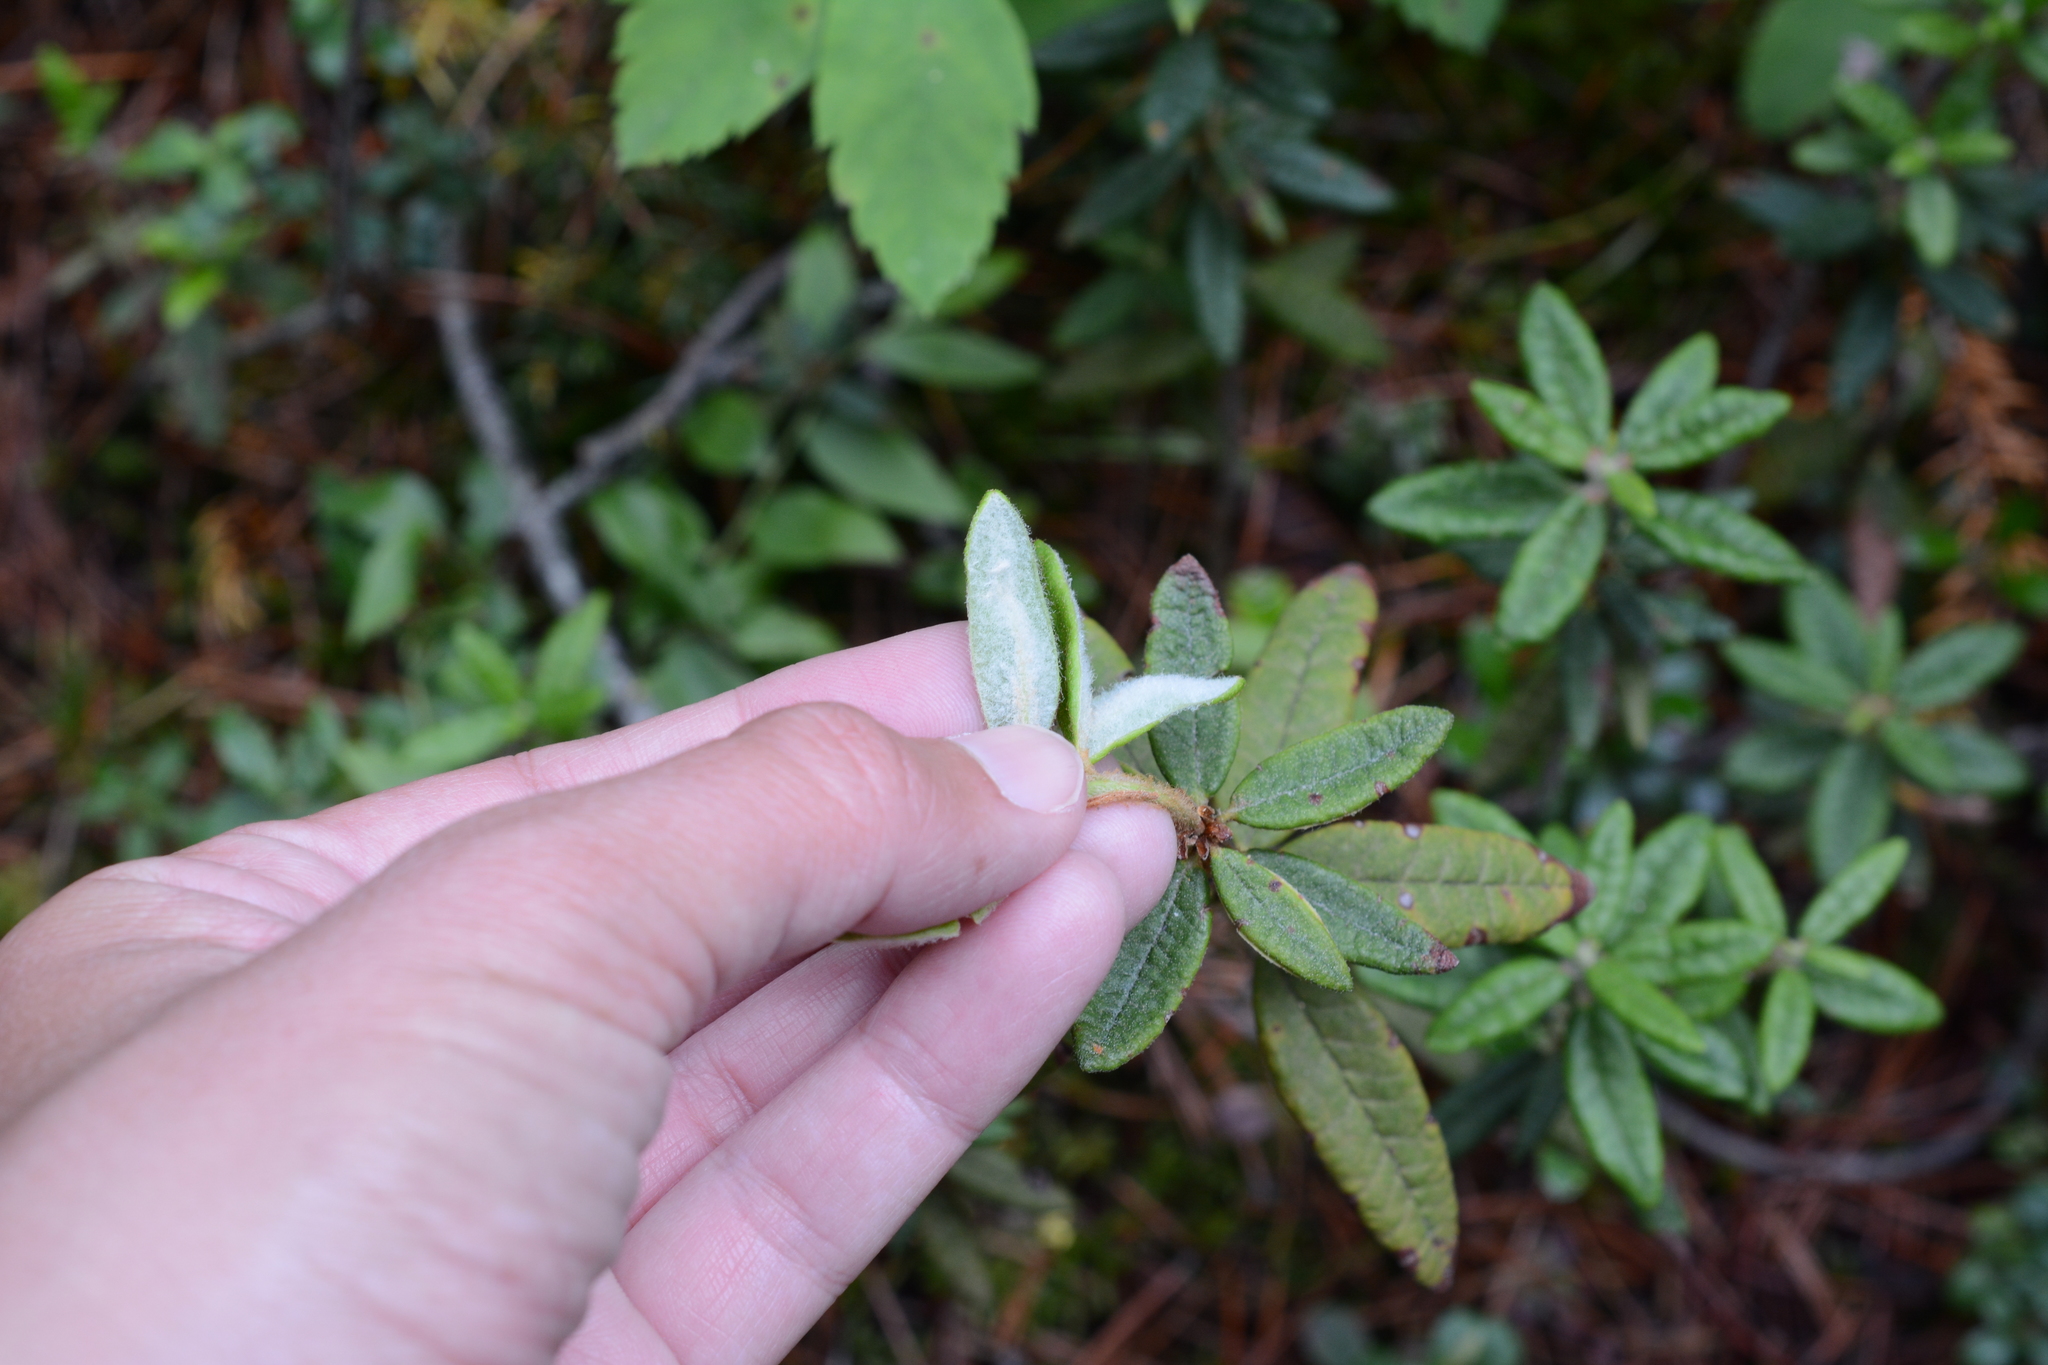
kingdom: Plantae
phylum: Tracheophyta
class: Magnoliopsida
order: Ericales
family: Ericaceae
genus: Rhododendron
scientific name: Rhododendron groenlandicum
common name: Bog labrador tea
